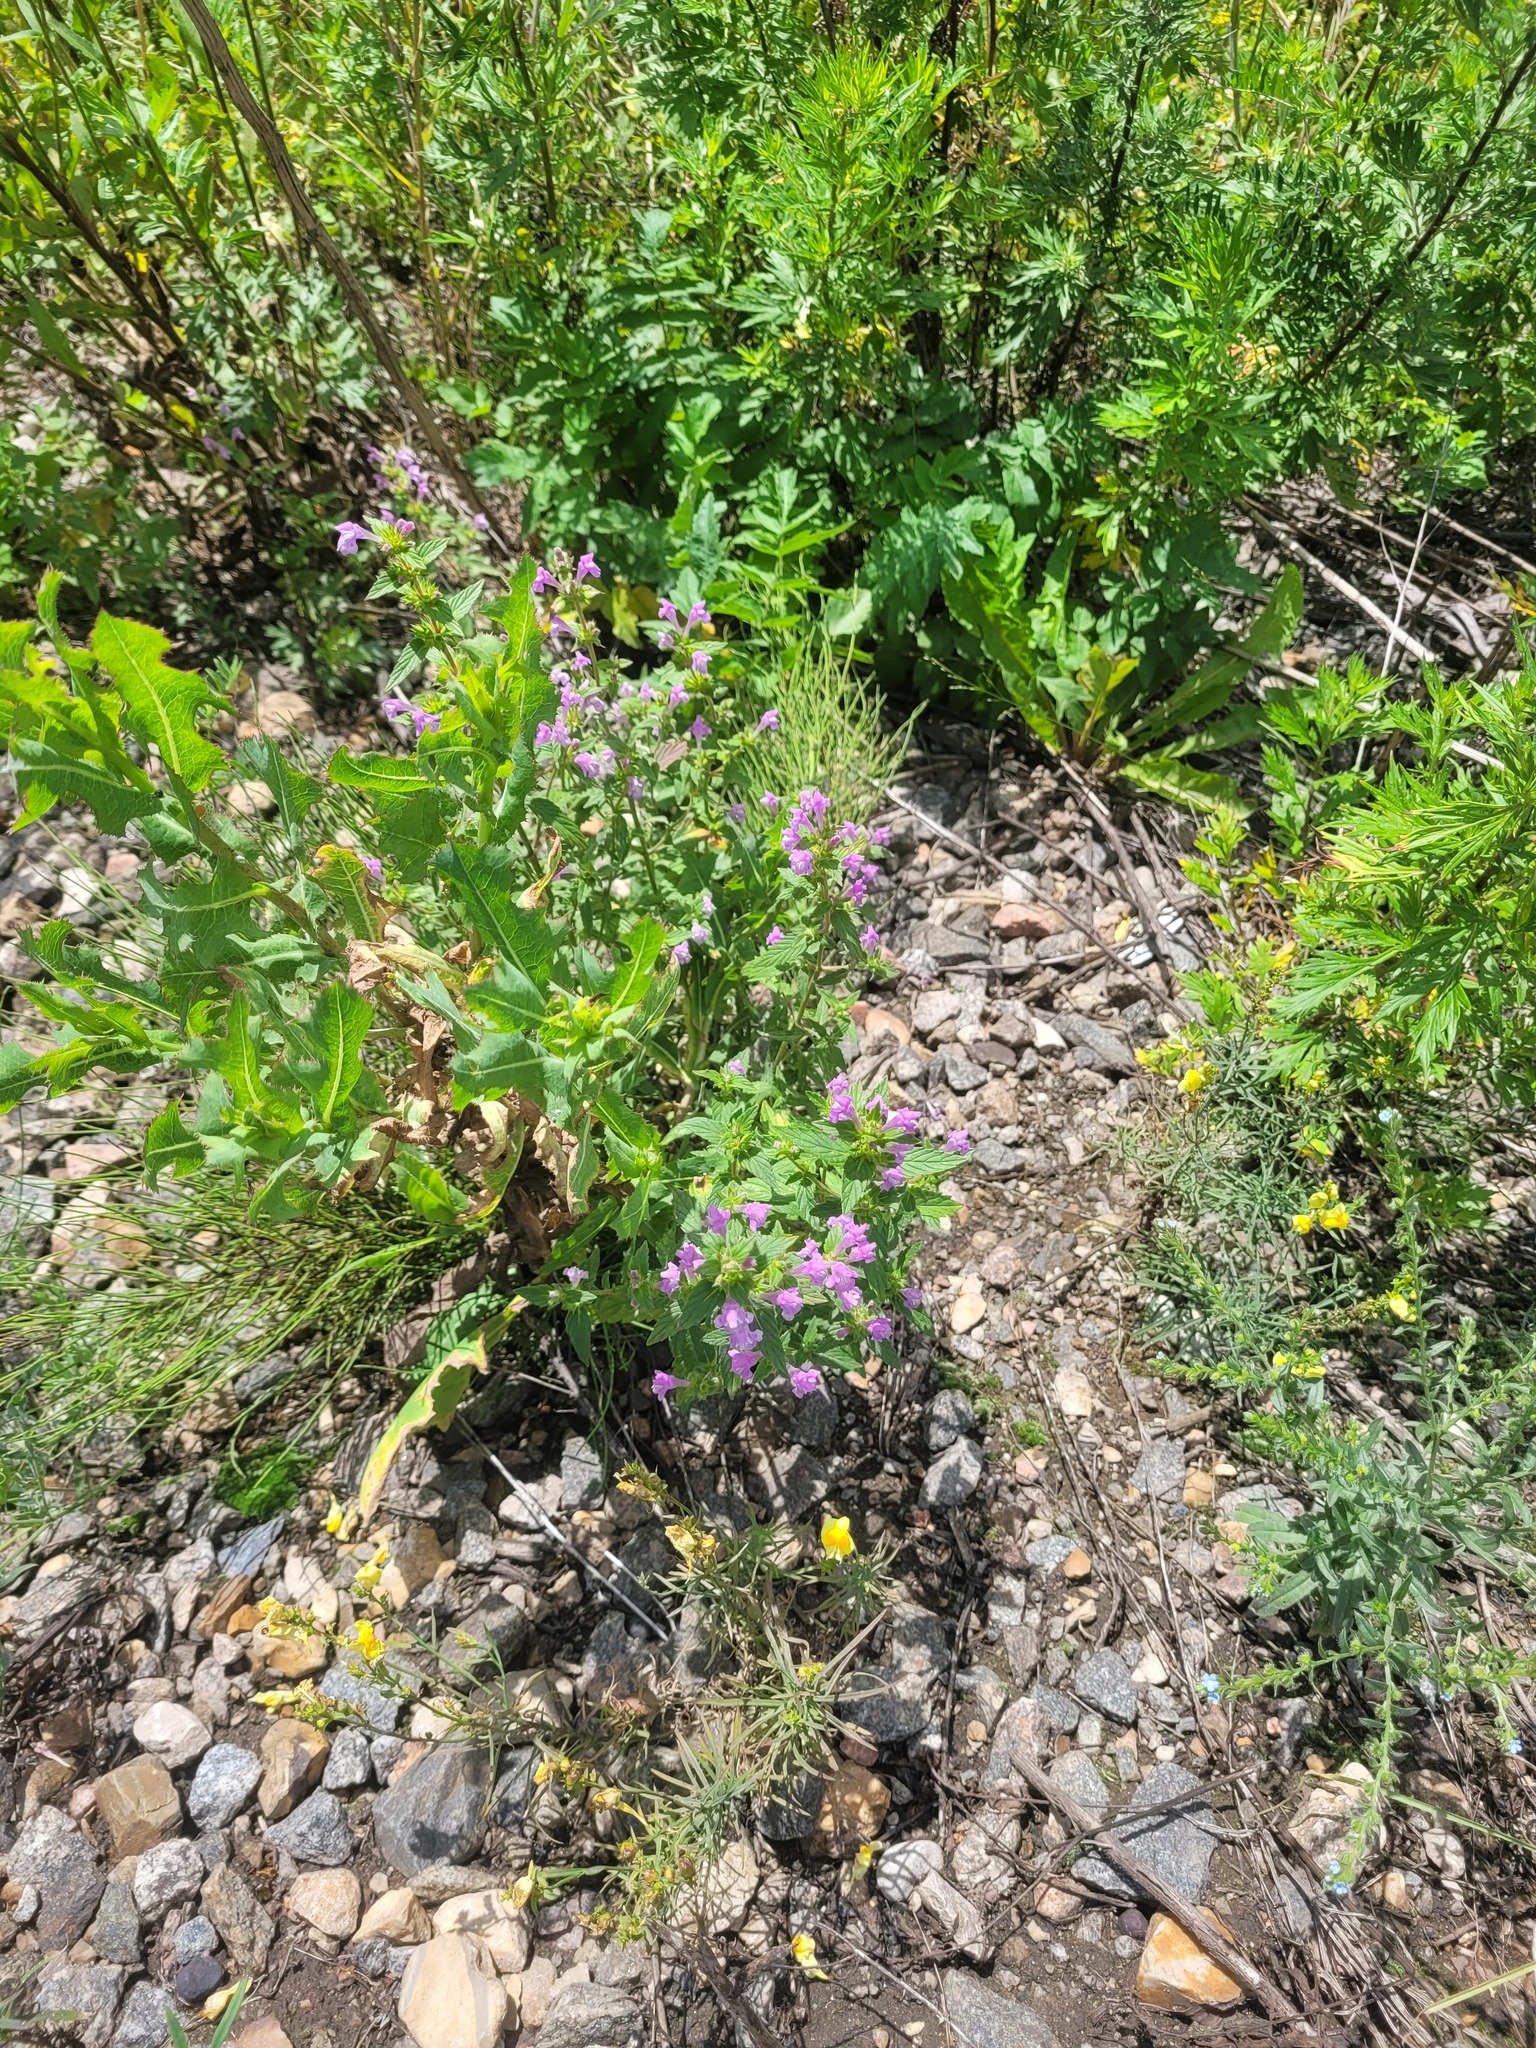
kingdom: Plantae
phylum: Tracheophyta
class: Magnoliopsida
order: Lamiales
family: Lamiaceae
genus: Galeopsis
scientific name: Galeopsis ladanum
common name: Broad-leaved hemp-nettle
